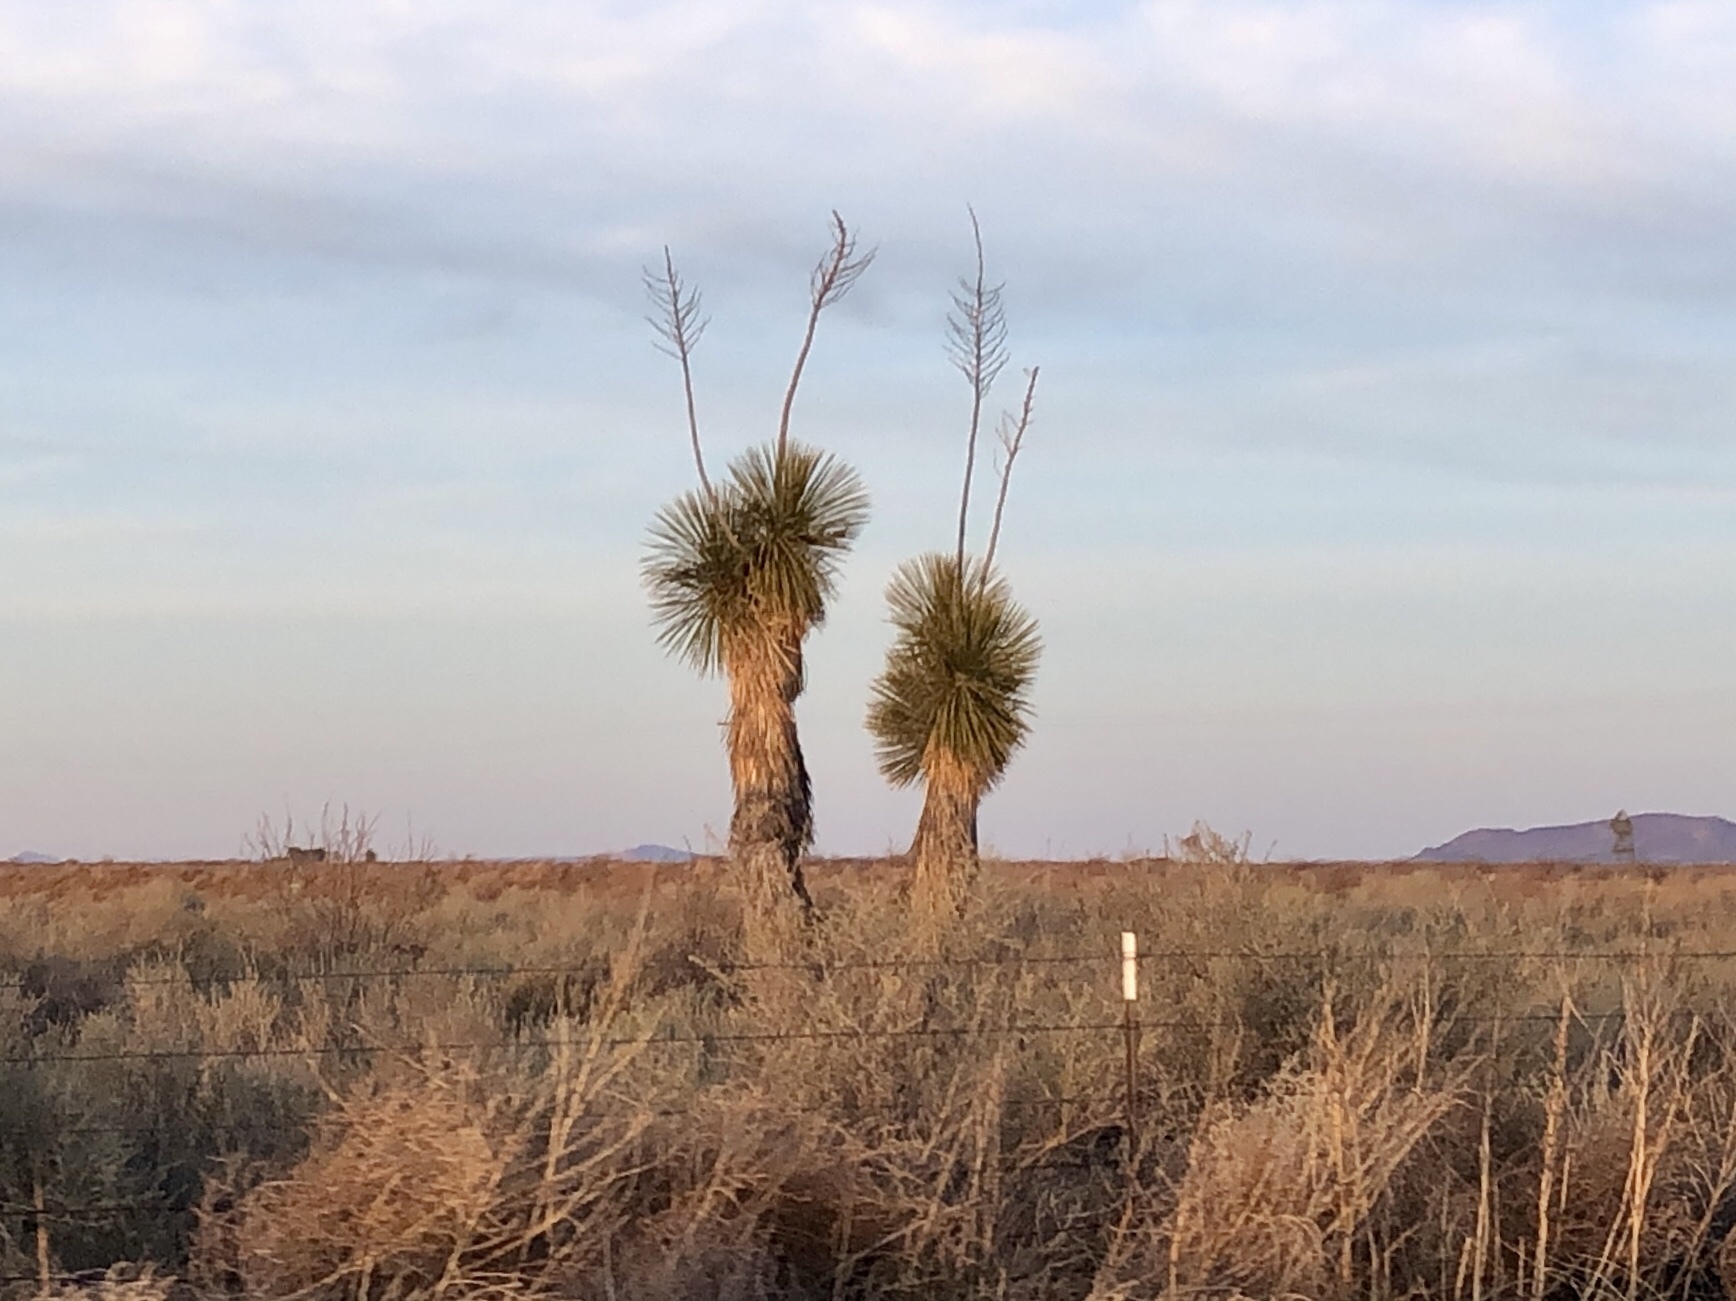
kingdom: Plantae
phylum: Tracheophyta
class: Liliopsida
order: Asparagales
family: Asparagaceae
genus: Yucca
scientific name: Yucca elata
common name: Palmella
